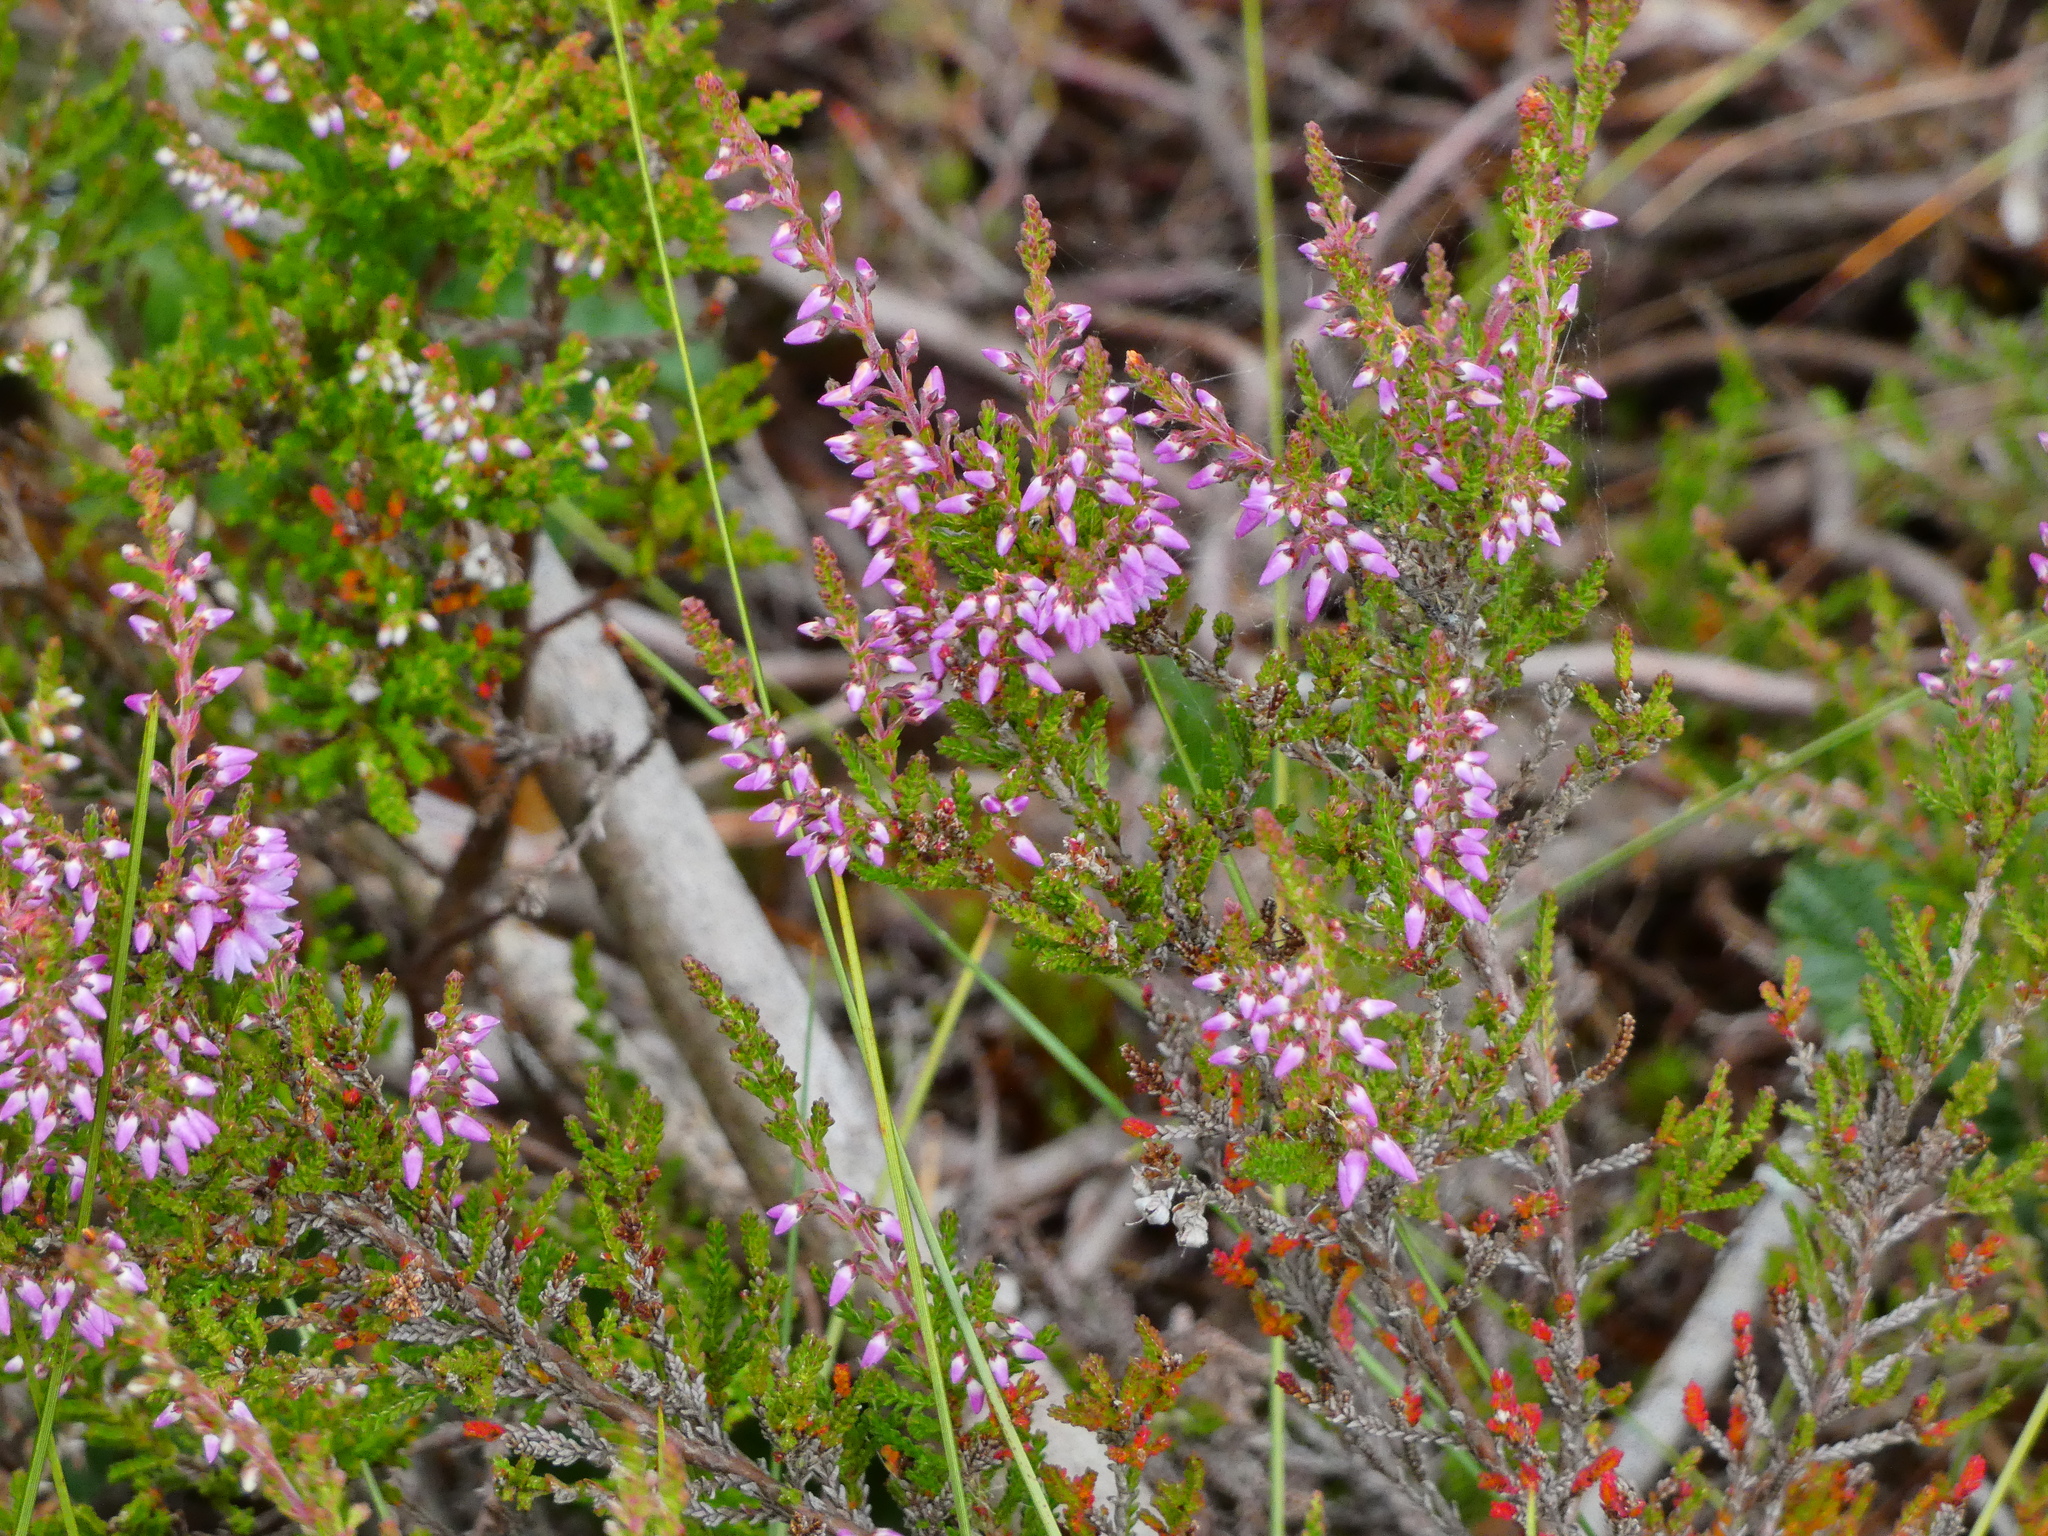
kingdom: Plantae
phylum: Tracheophyta
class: Magnoliopsida
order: Ericales
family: Ericaceae
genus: Calluna
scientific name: Calluna vulgaris
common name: Heather
